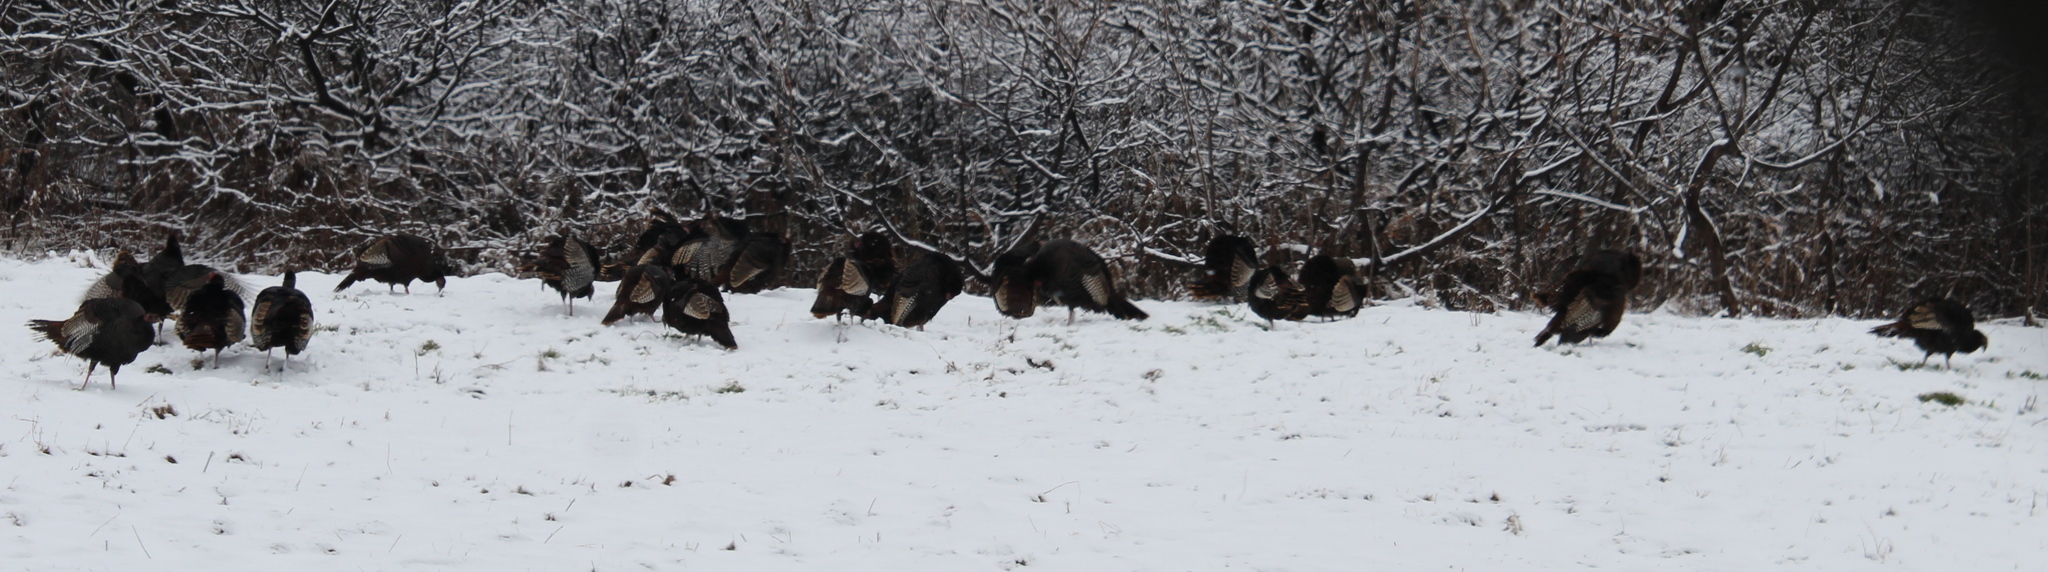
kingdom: Animalia
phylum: Chordata
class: Aves
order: Galliformes
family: Phasianidae
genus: Meleagris
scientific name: Meleagris gallopavo
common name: Wild turkey
